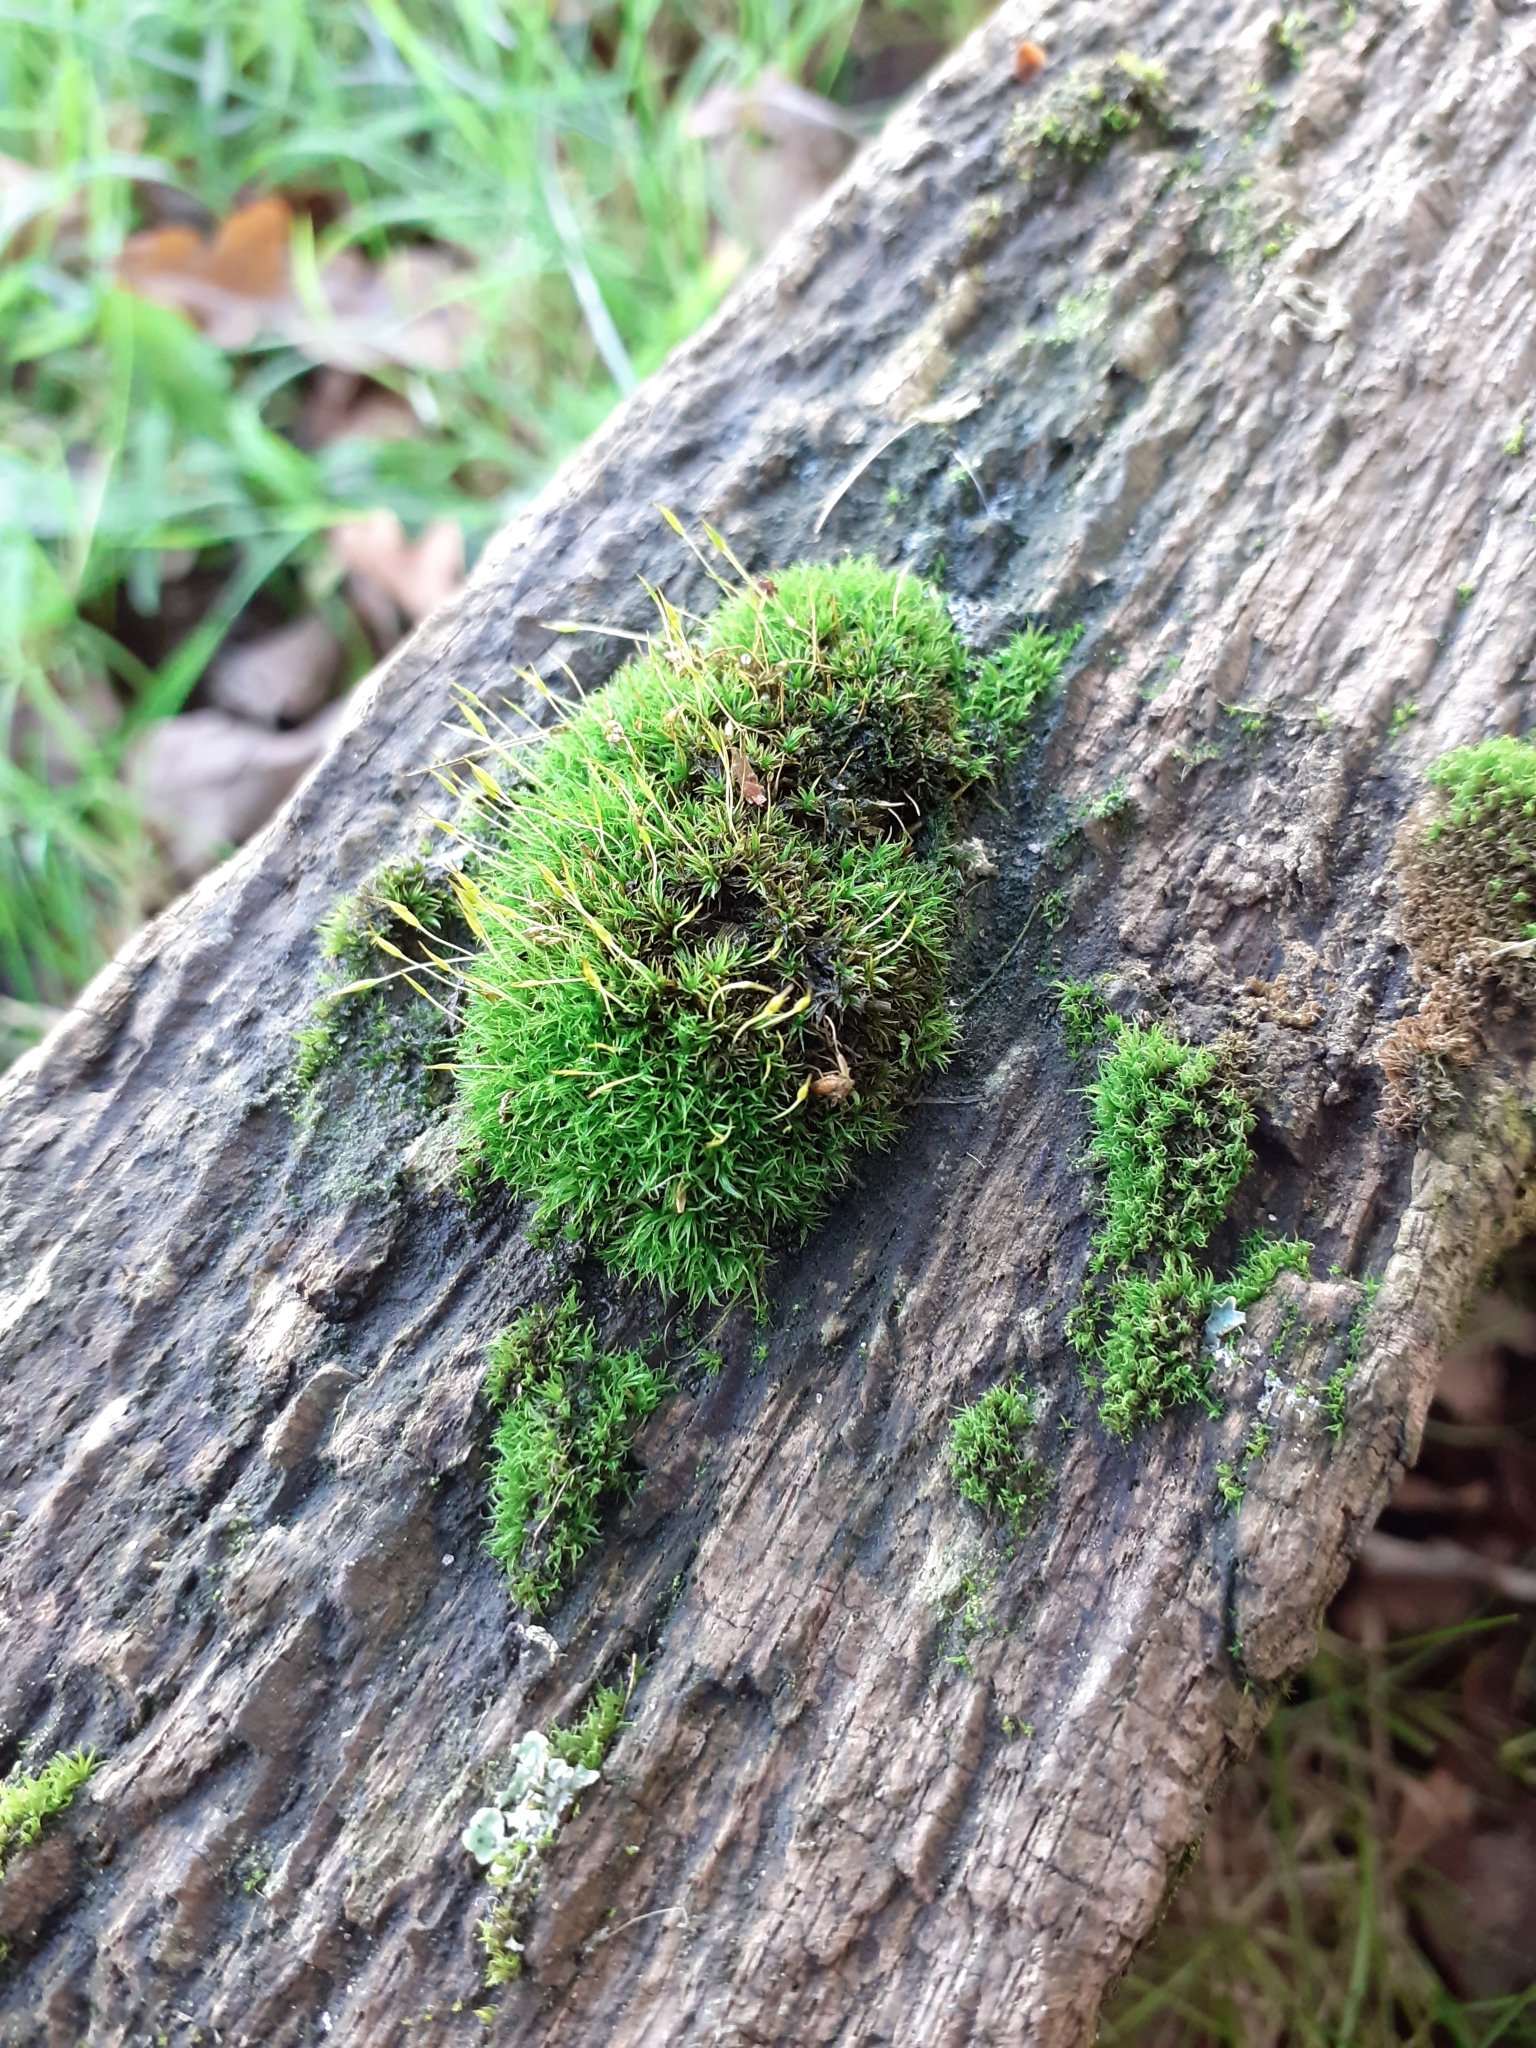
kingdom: Plantae
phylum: Bryophyta
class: Bryopsida
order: Dicranales
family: Rhabdoweisiaceae
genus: Dicranoweisia
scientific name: Dicranoweisia cirrata
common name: Common pincushion
